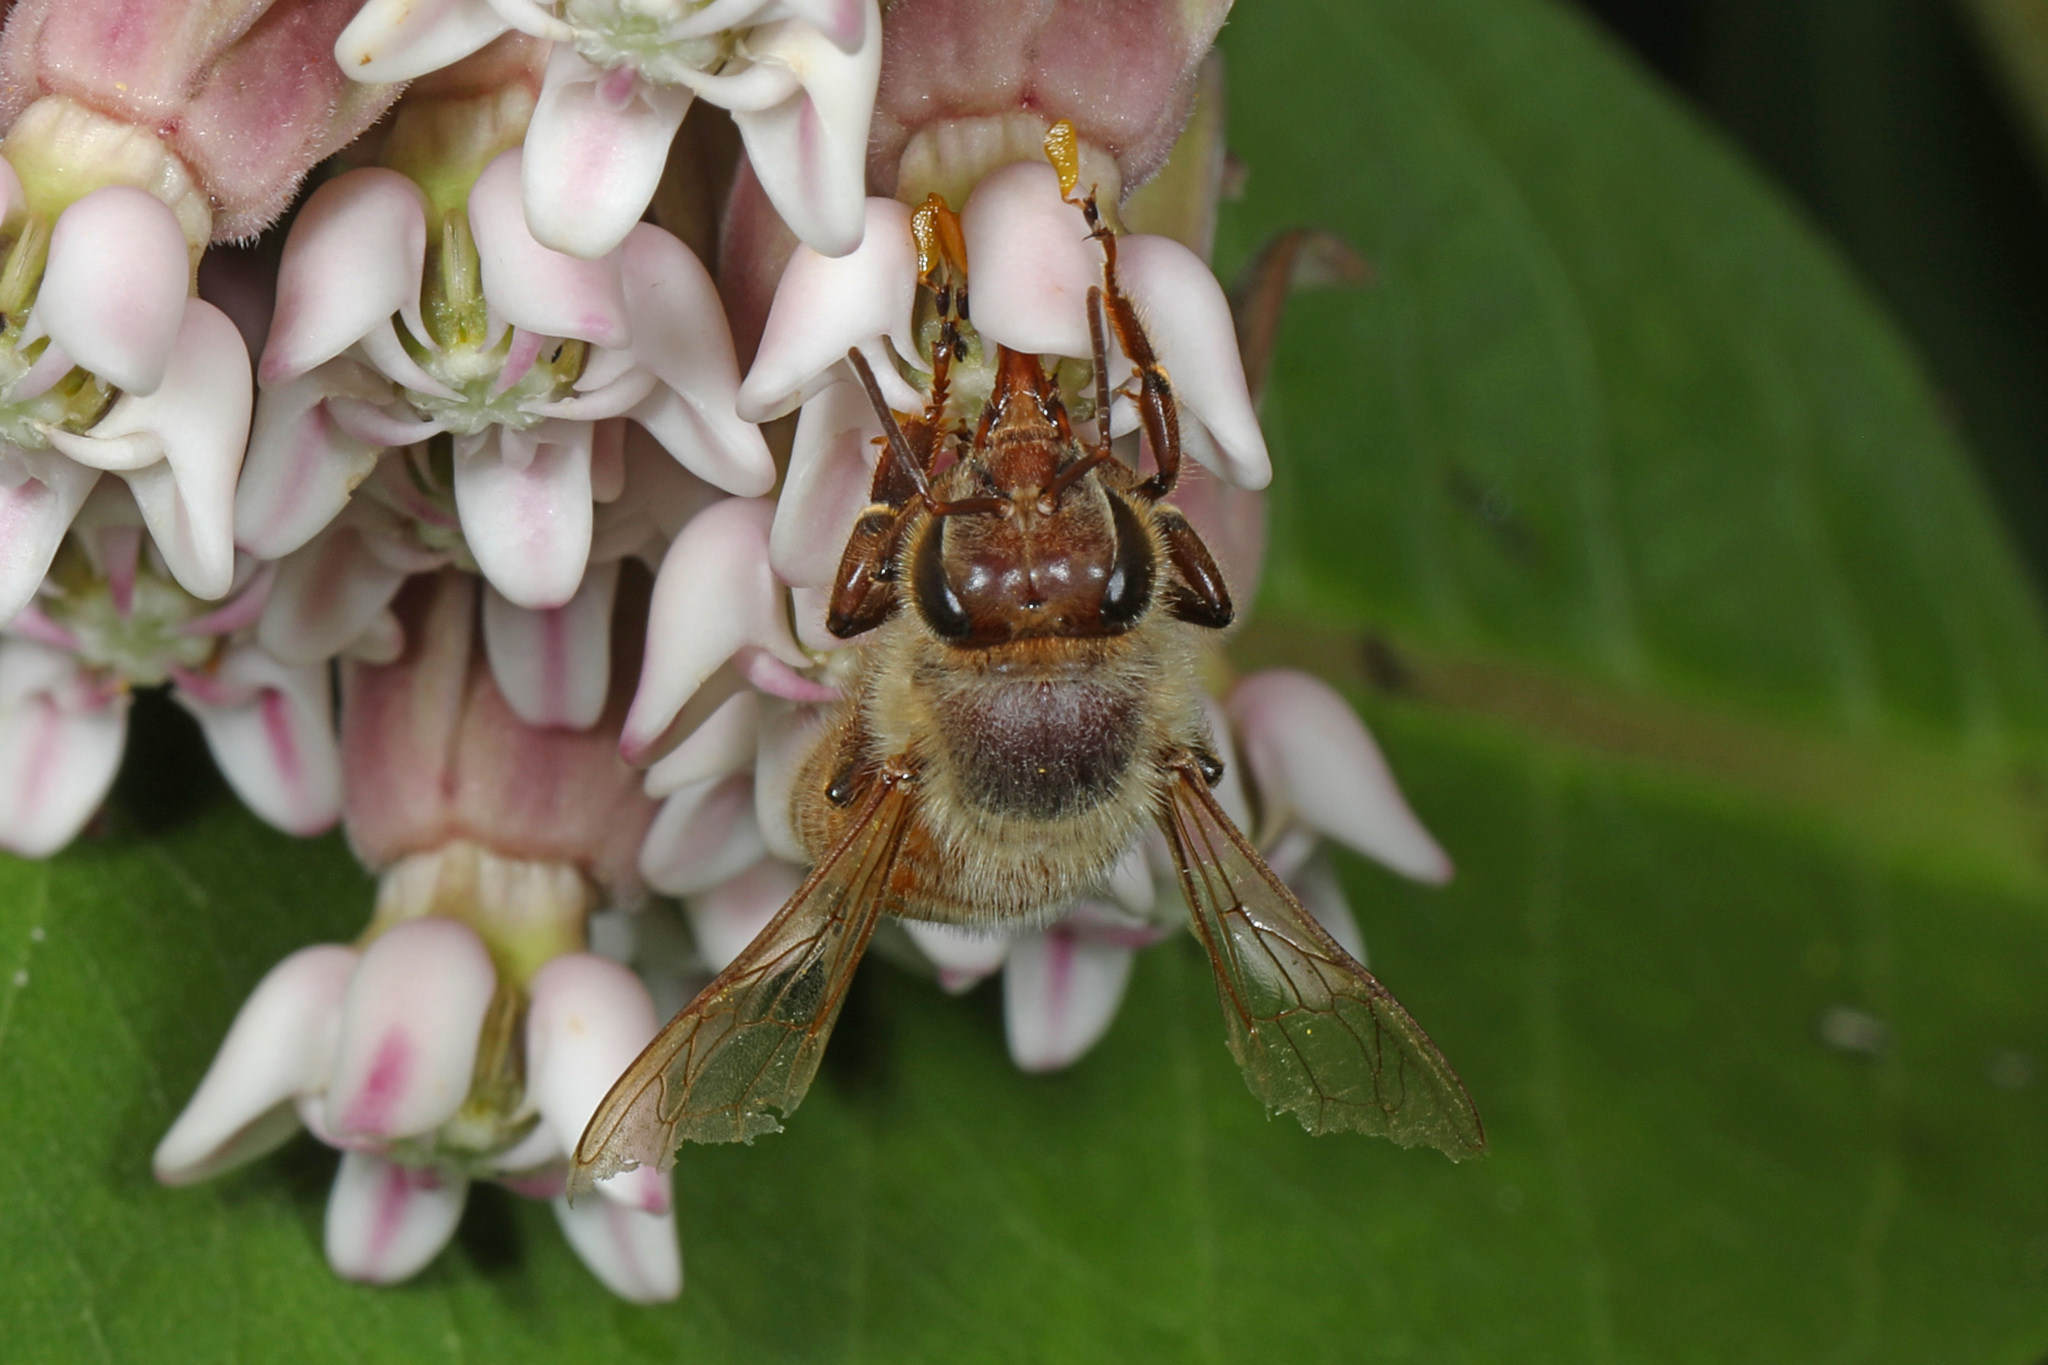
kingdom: Animalia
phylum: Arthropoda
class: Insecta
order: Hymenoptera
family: Apidae
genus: Apis
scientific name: Apis mellifera
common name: Honey bee
